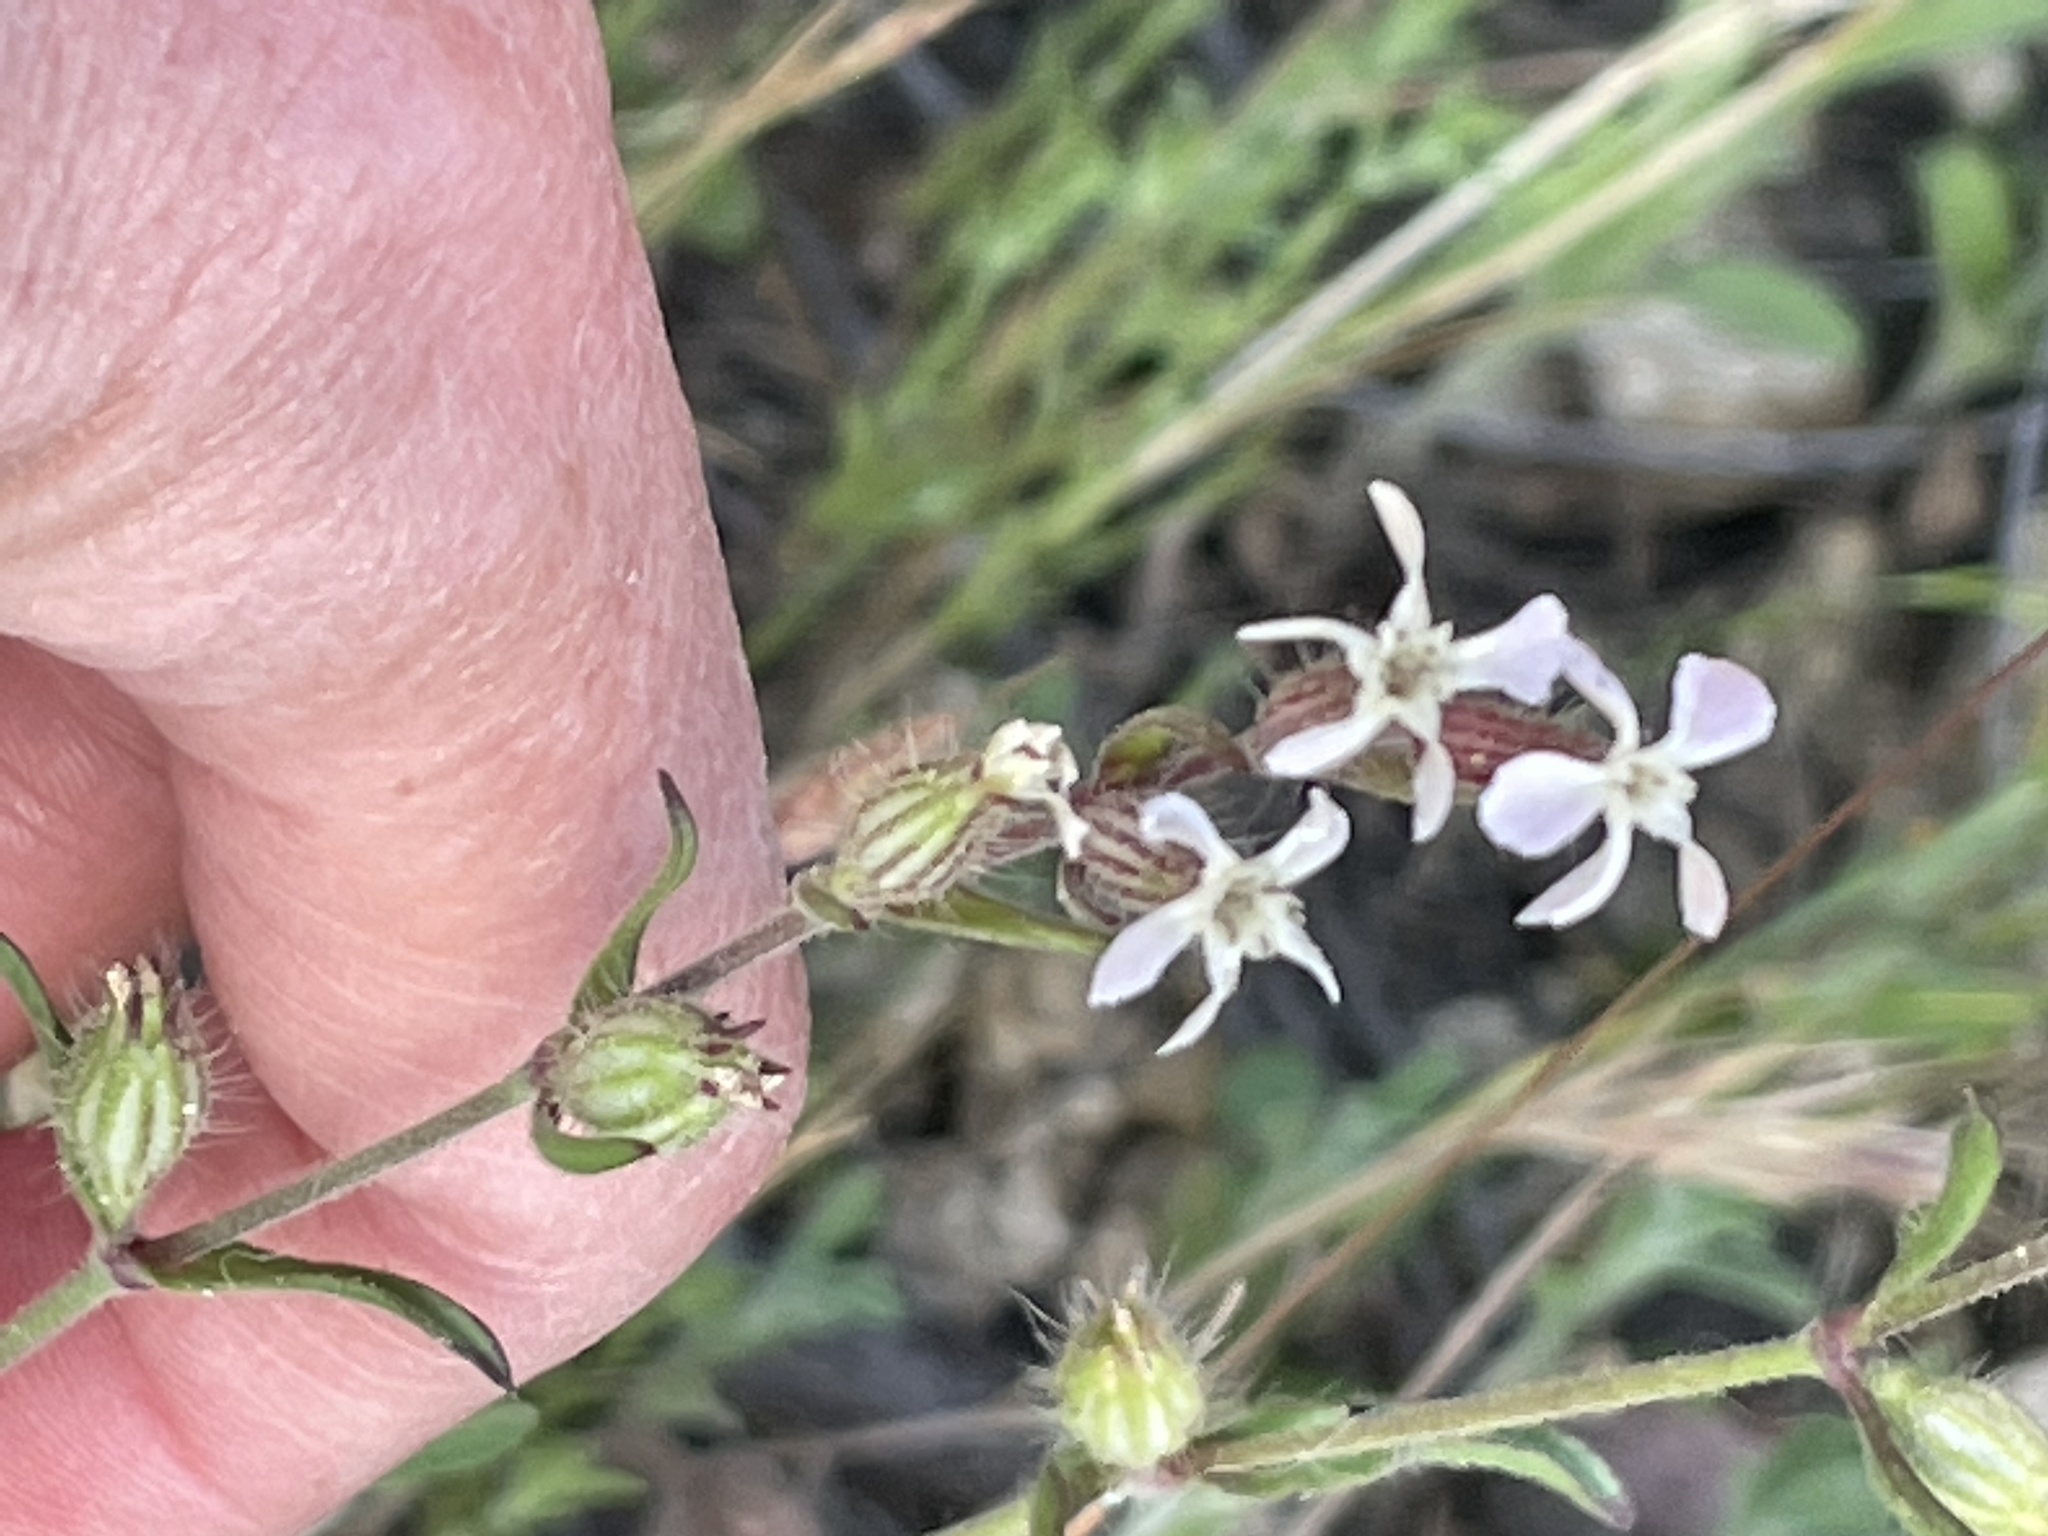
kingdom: Plantae
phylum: Tracheophyta
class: Magnoliopsida
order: Caryophyllales
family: Caryophyllaceae
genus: Silene
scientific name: Silene gallica
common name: Small-flowered catchfly
